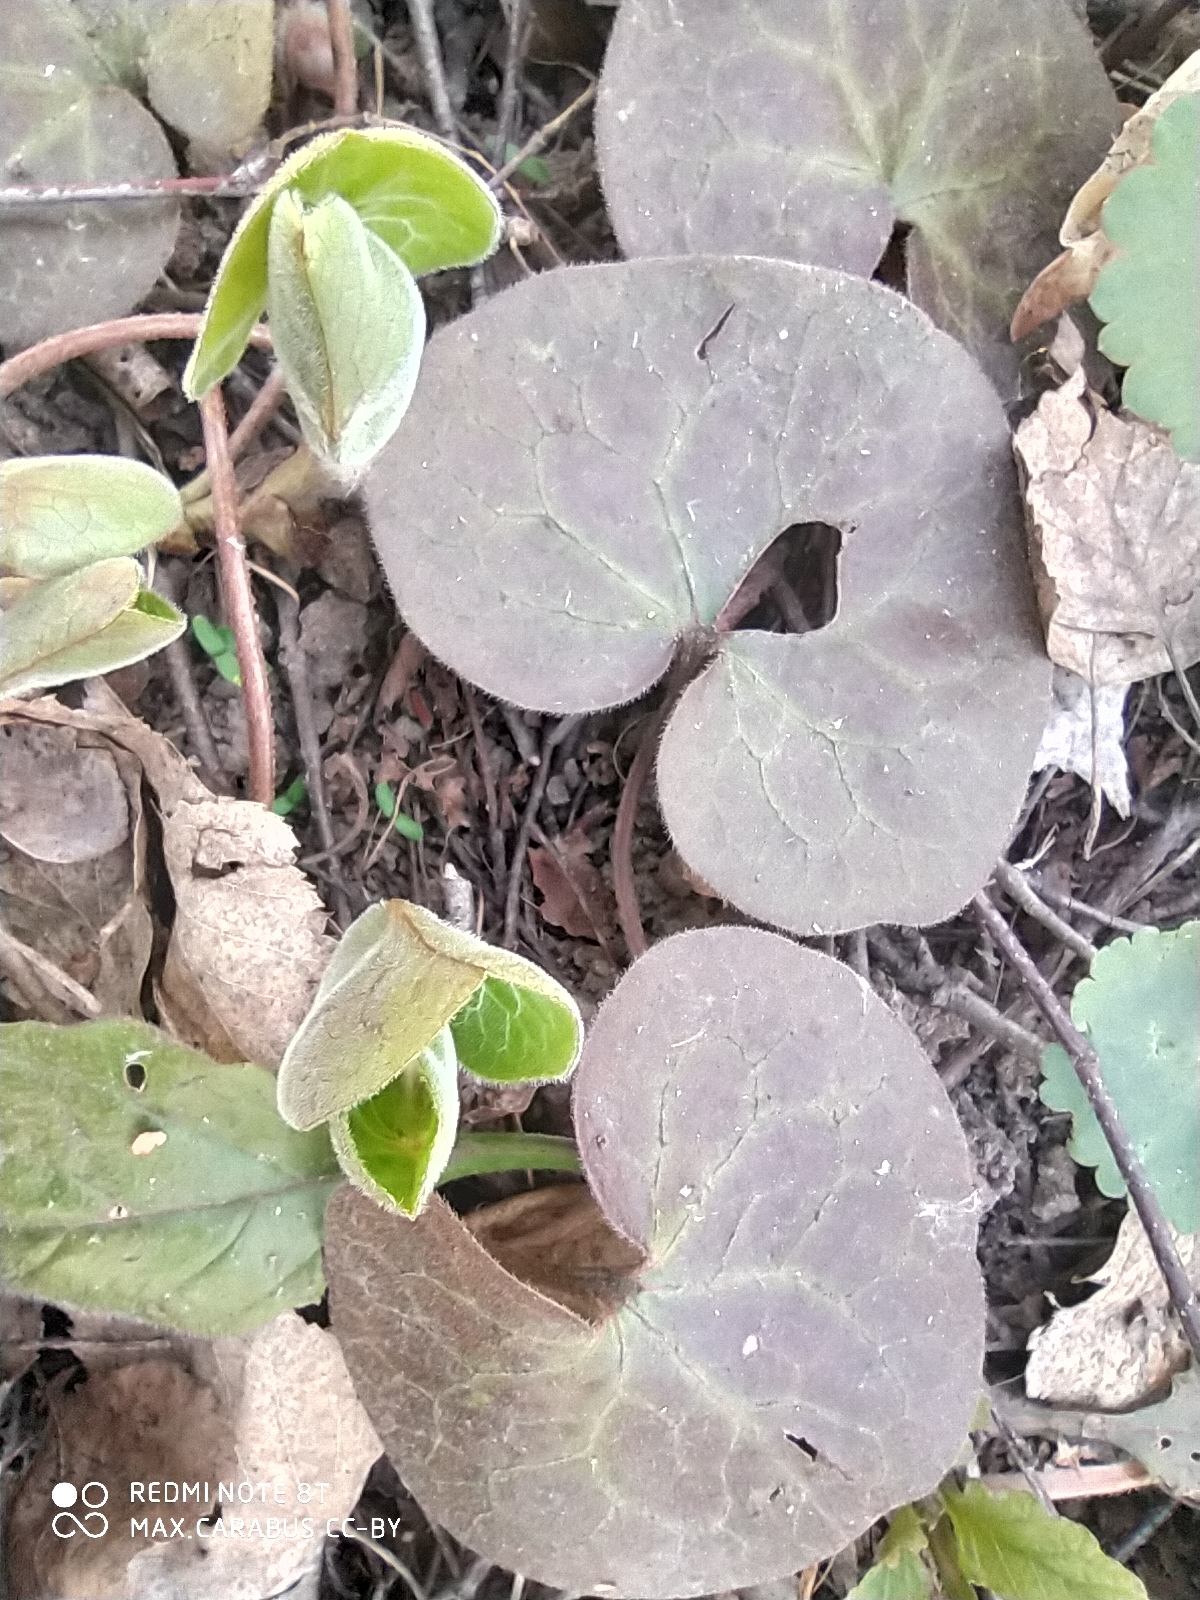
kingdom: Plantae
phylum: Tracheophyta
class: Magnoliopsida
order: Piperales
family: Aristolochiaceae
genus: Asarum
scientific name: Asarum europaeum
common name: Asarabacca
